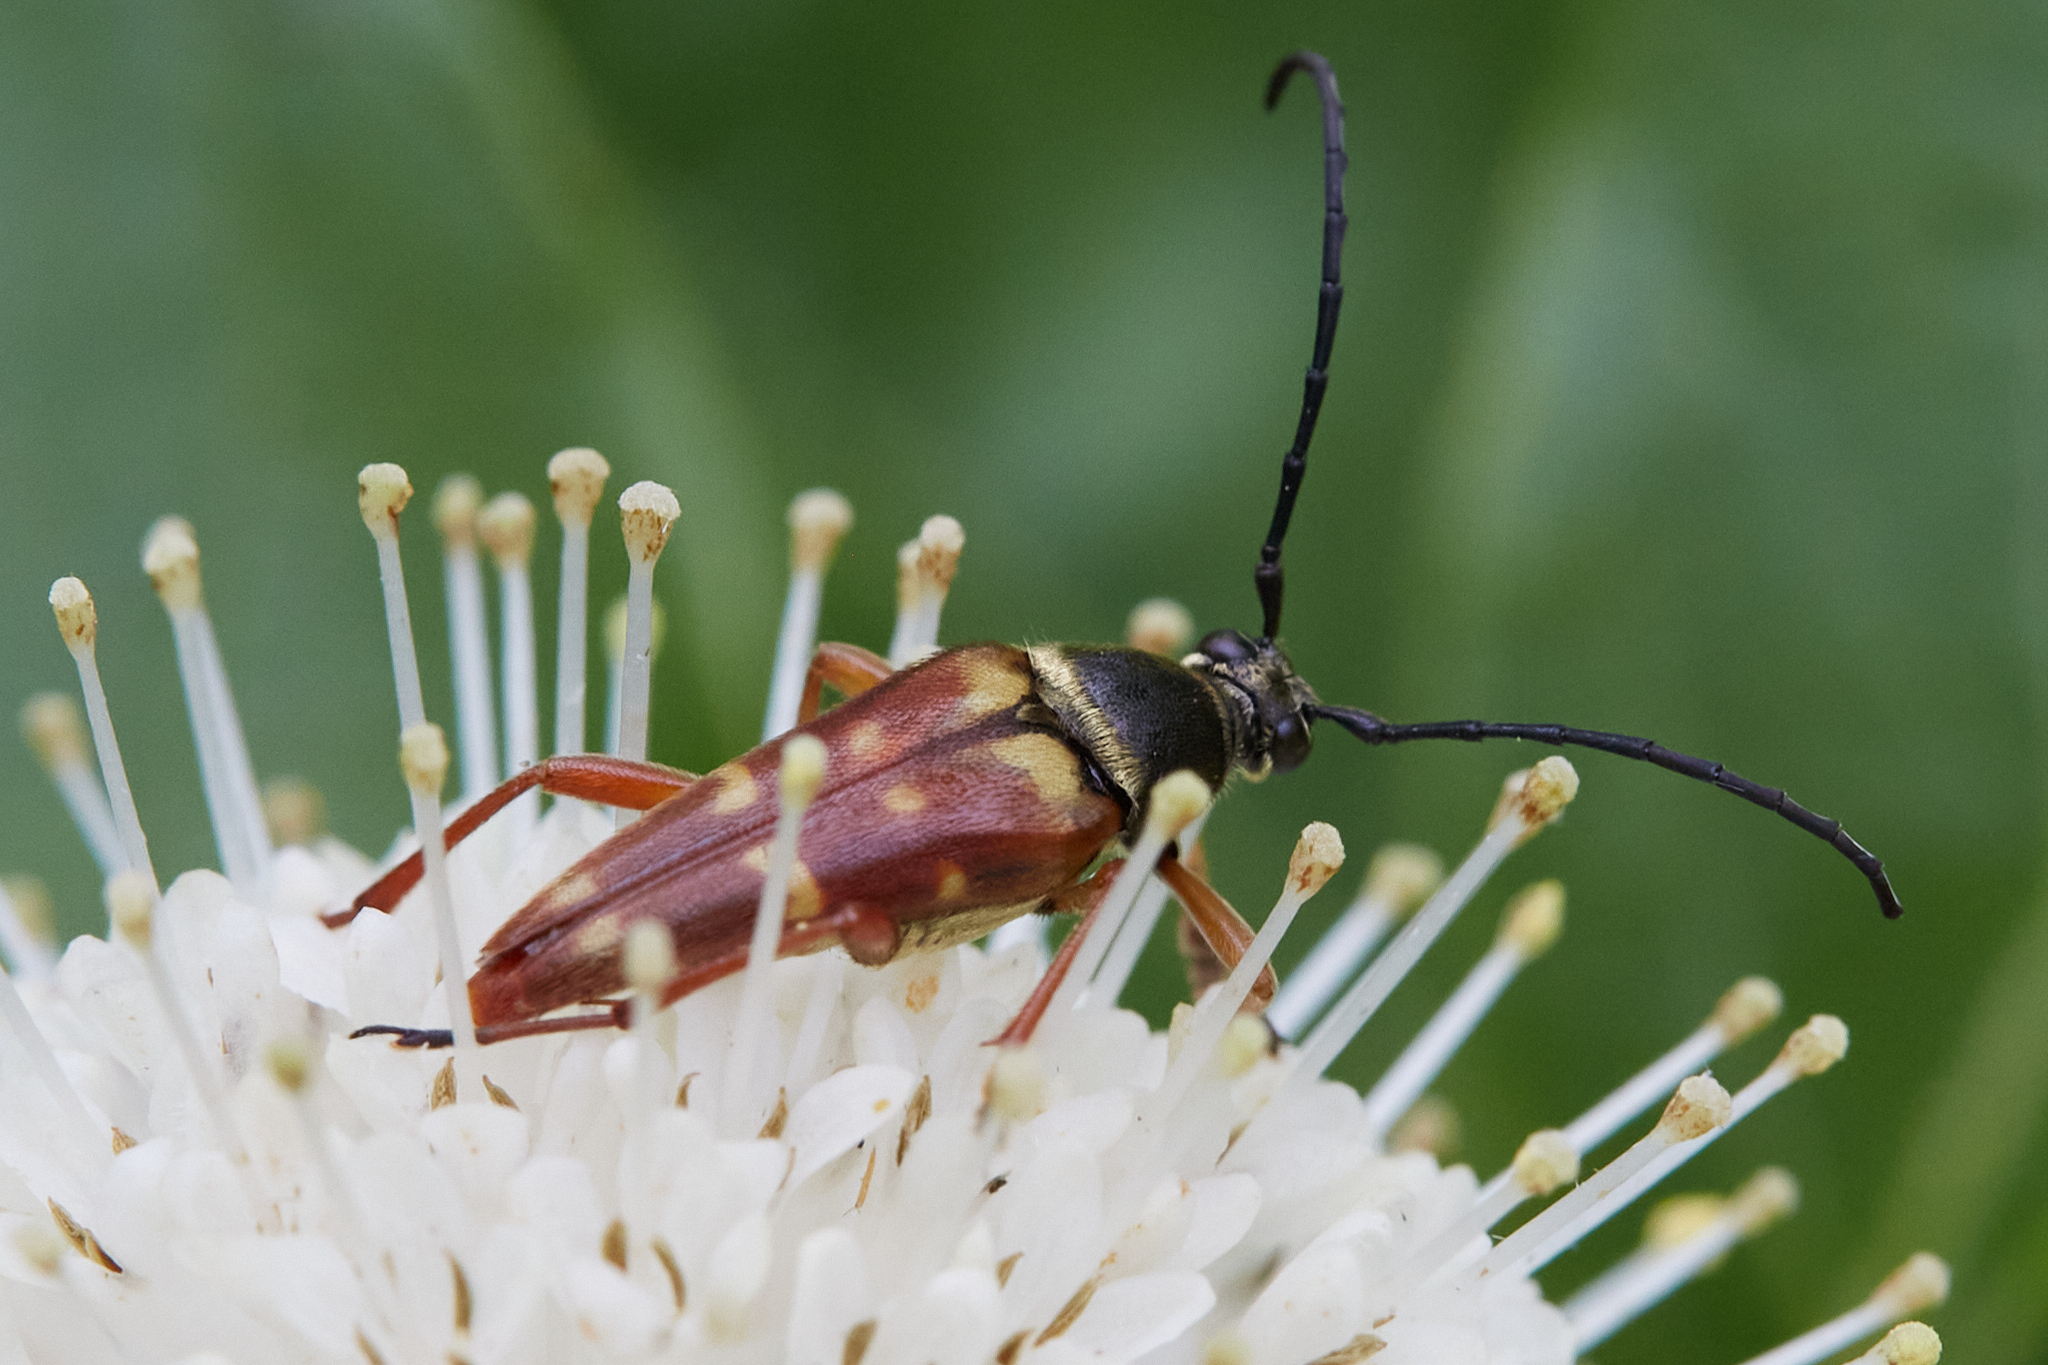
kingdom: Animalia
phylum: Arthropoda
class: Insecta
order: Coleoptera
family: Cerambycidae
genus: Typocerus
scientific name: Typocerus velutinus
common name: Banded longhorn beetle
